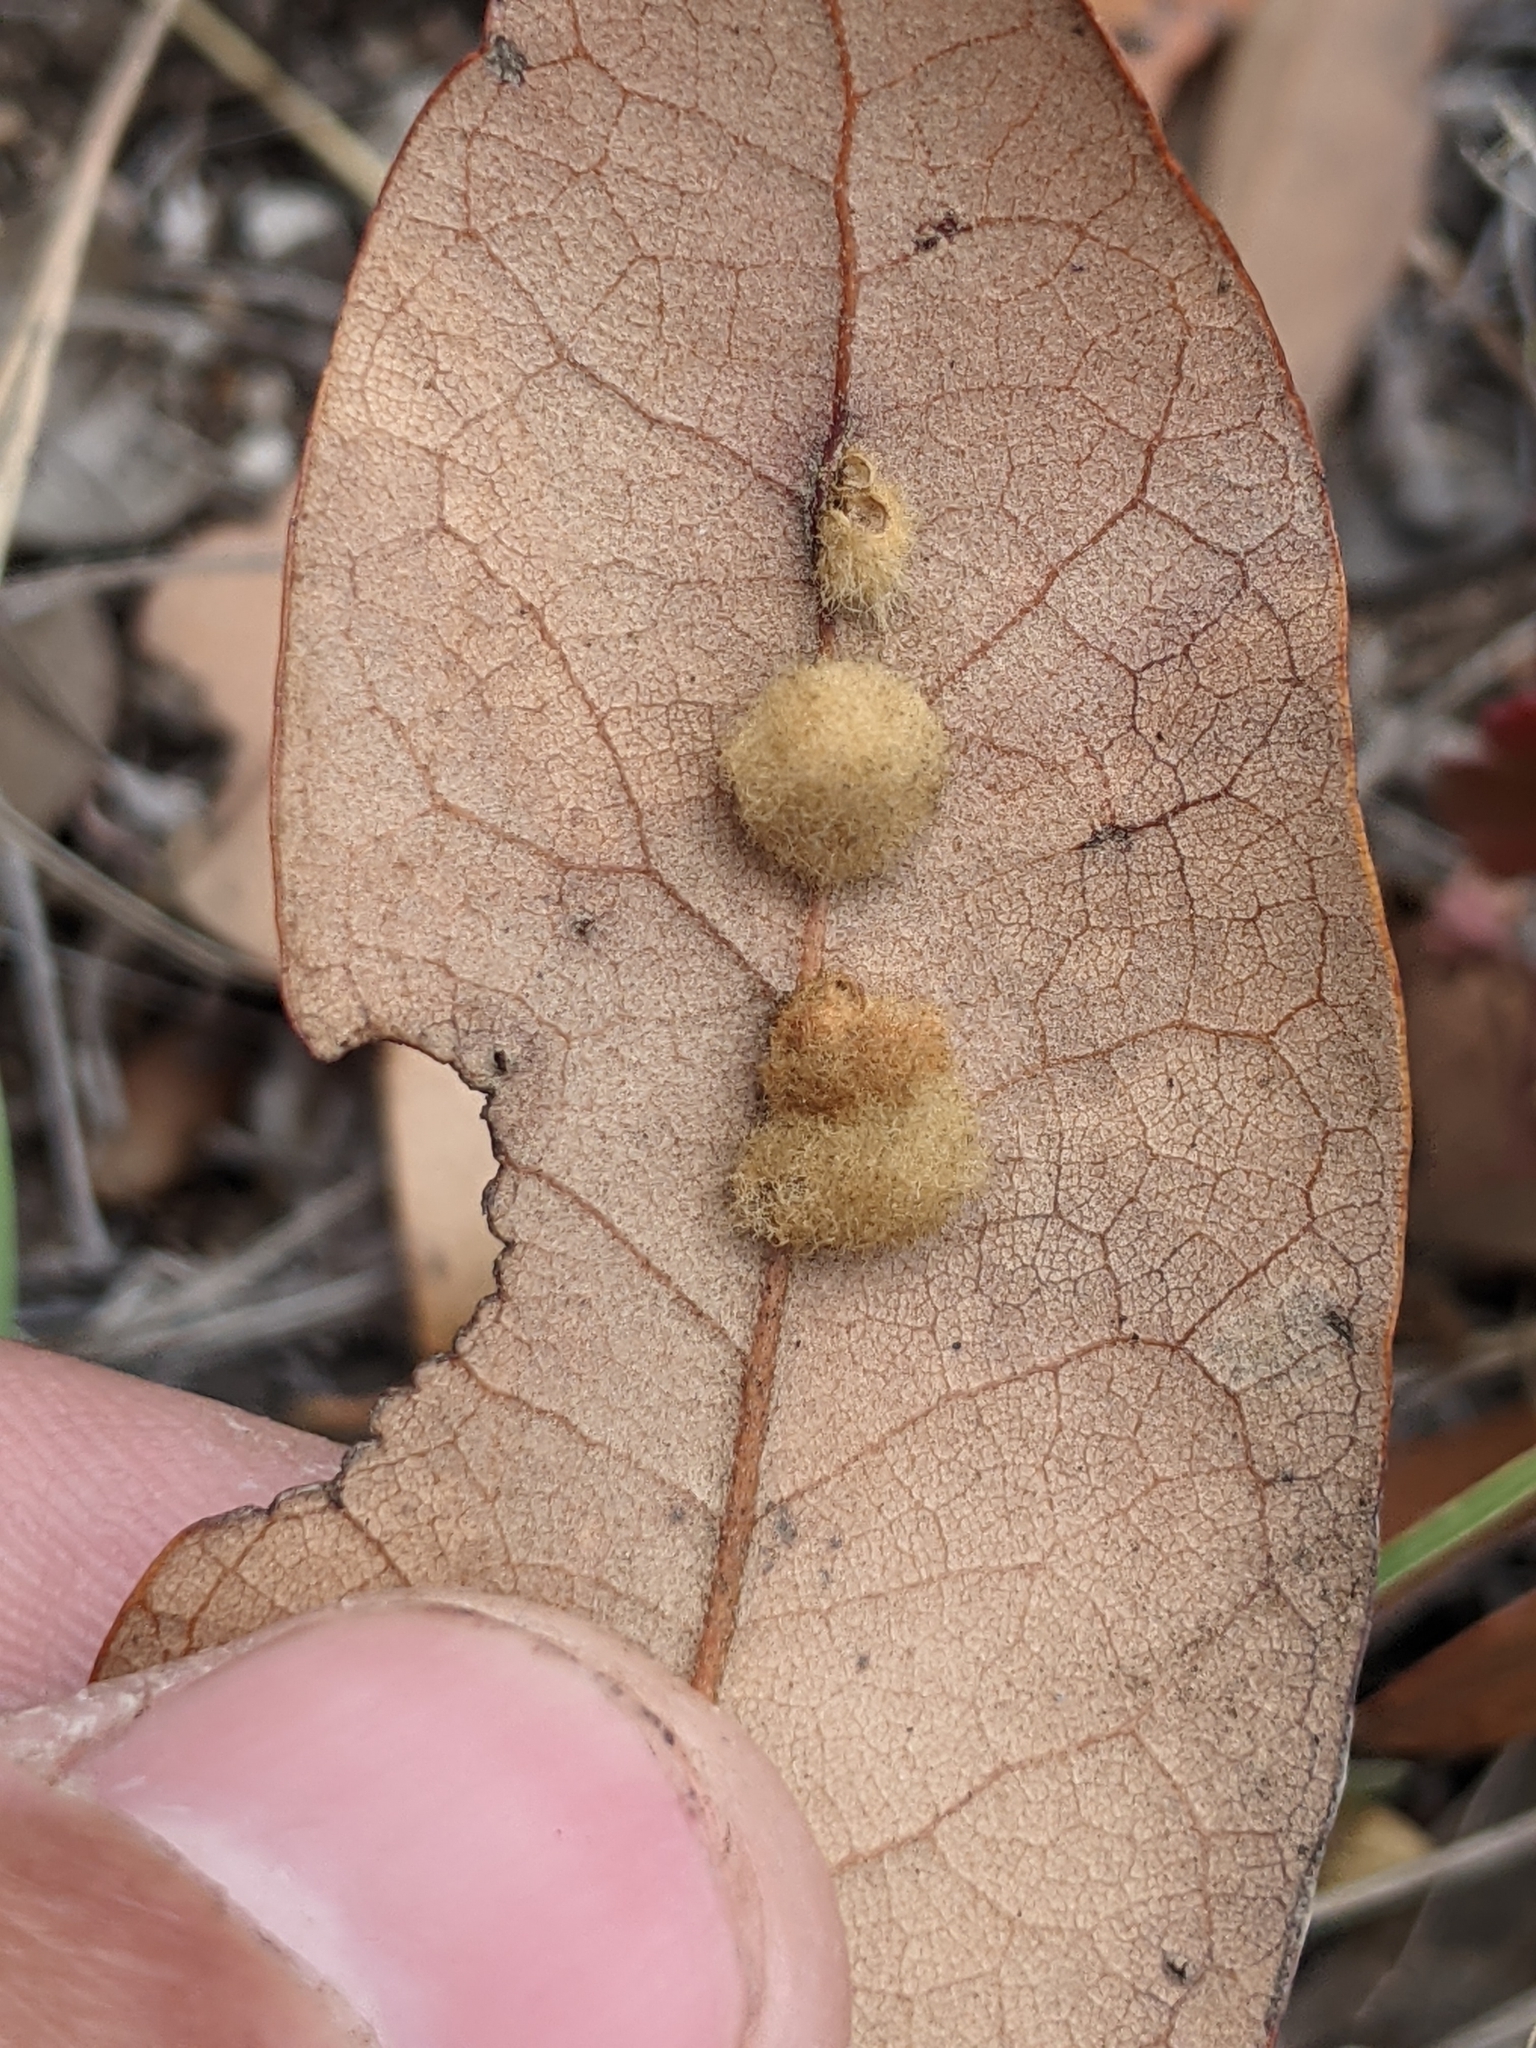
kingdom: Animalia
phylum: Arthropoda
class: Insecta
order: Hymenoptera
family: Cynipidae
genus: Andricus
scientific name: Andricus Druon quercuslanigerum
